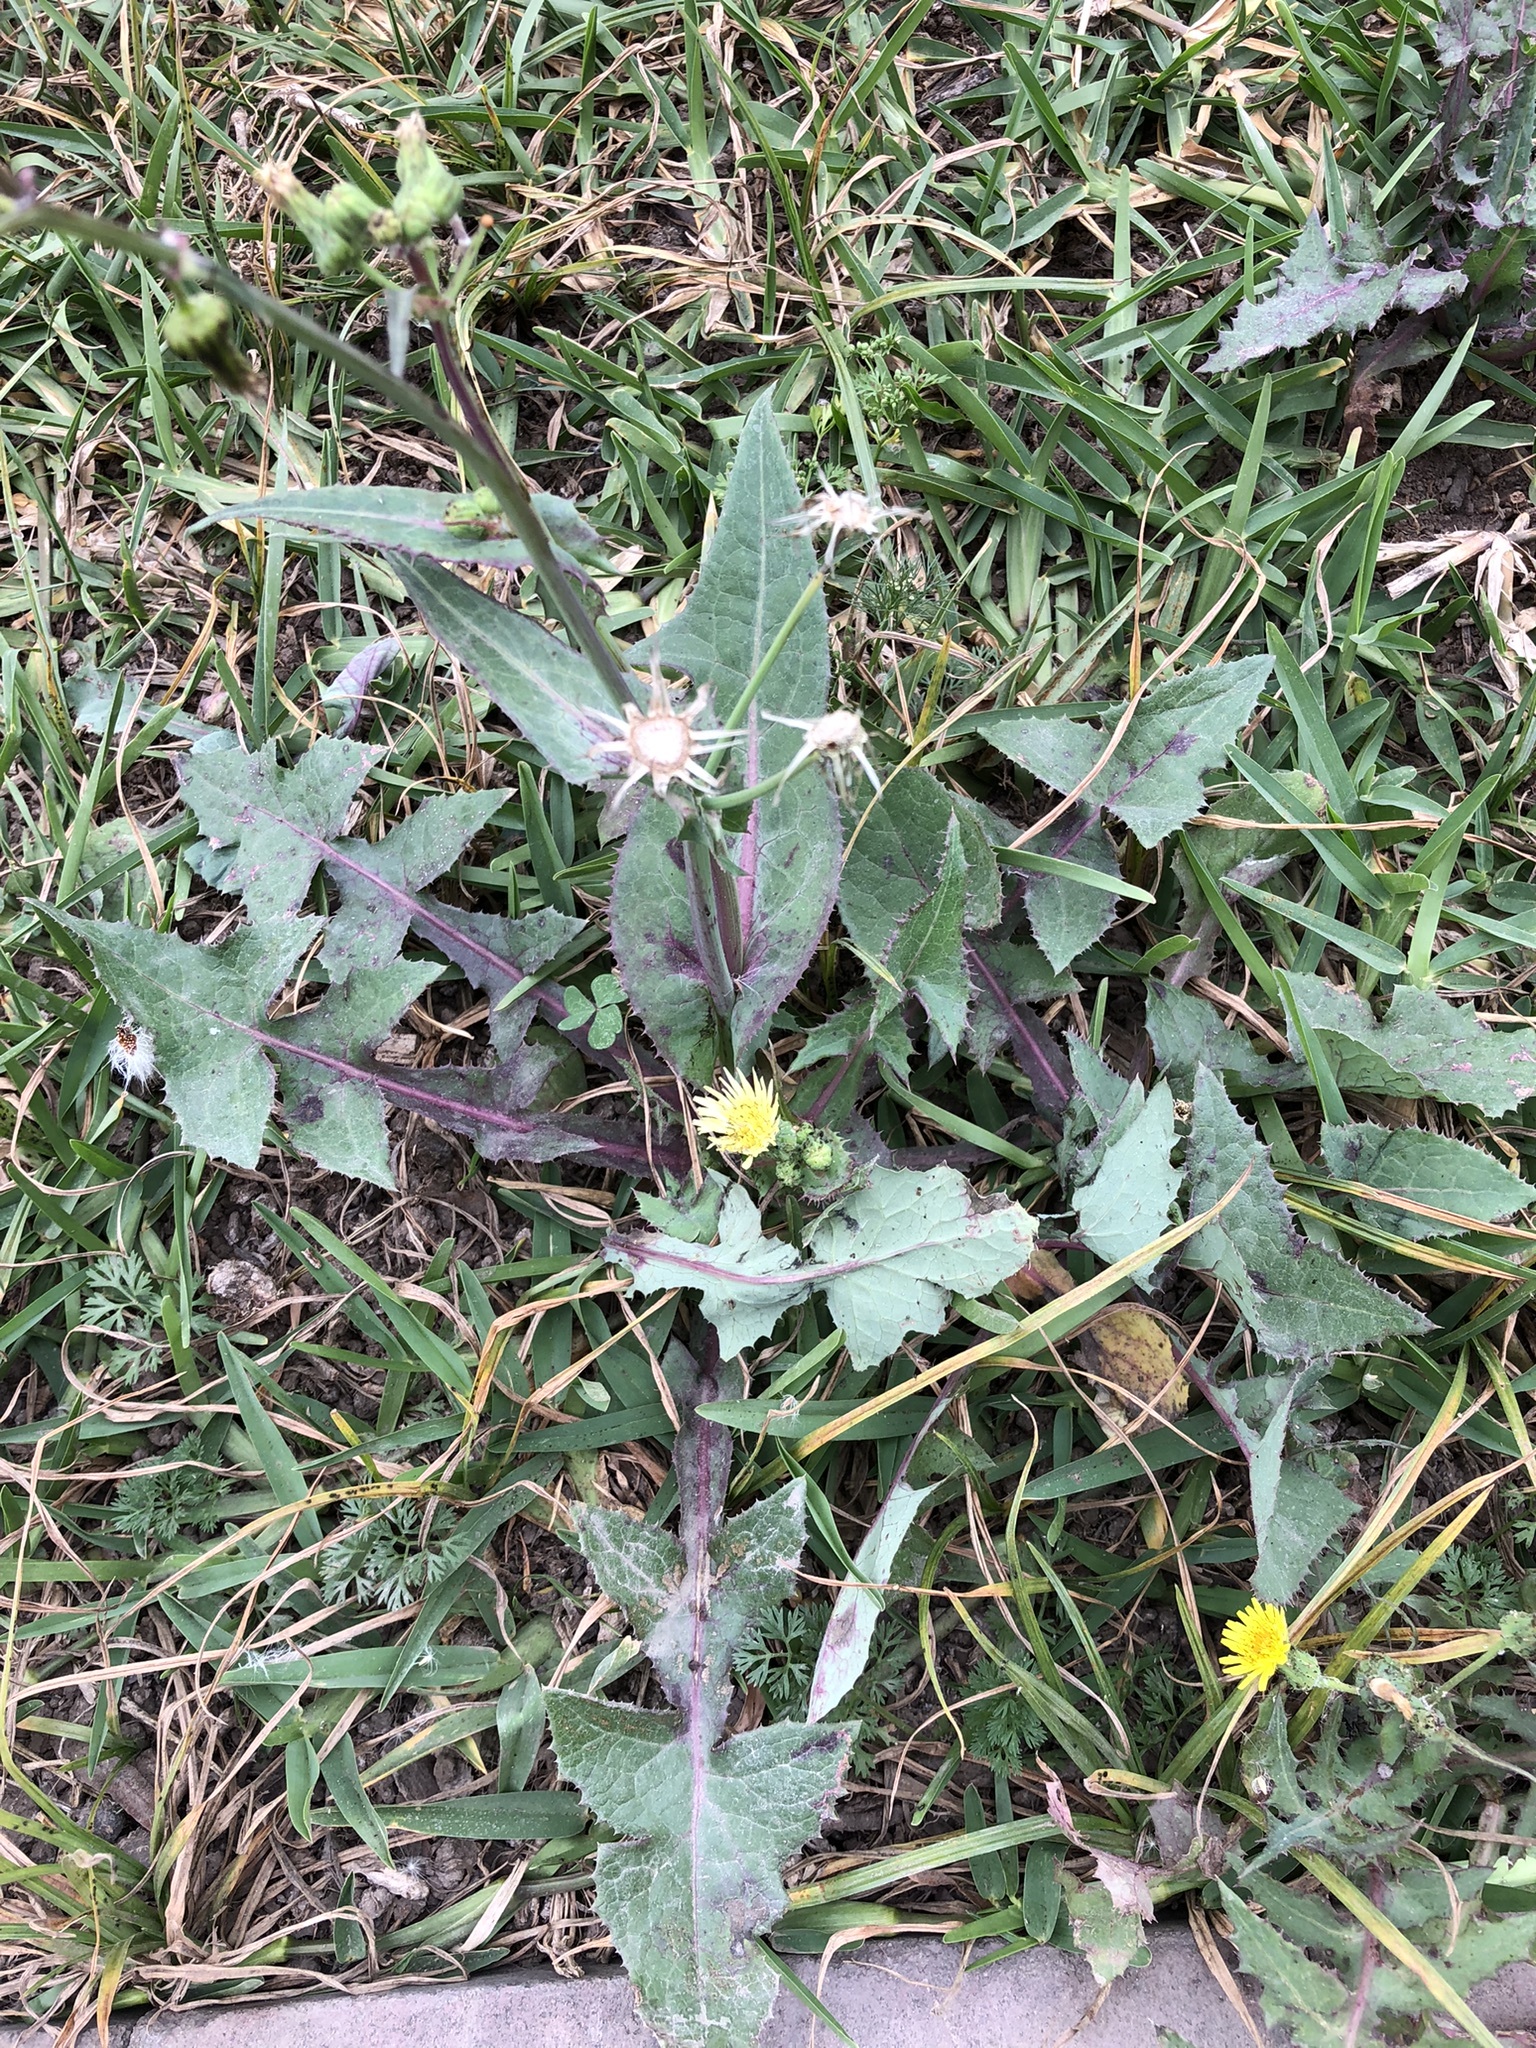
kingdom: Plantae
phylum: Tracheophyta
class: Magnoliopsida
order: Asterales
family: Asteraceae
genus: Sonchus
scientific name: Sonchus oleraceus
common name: Common sowthistle
